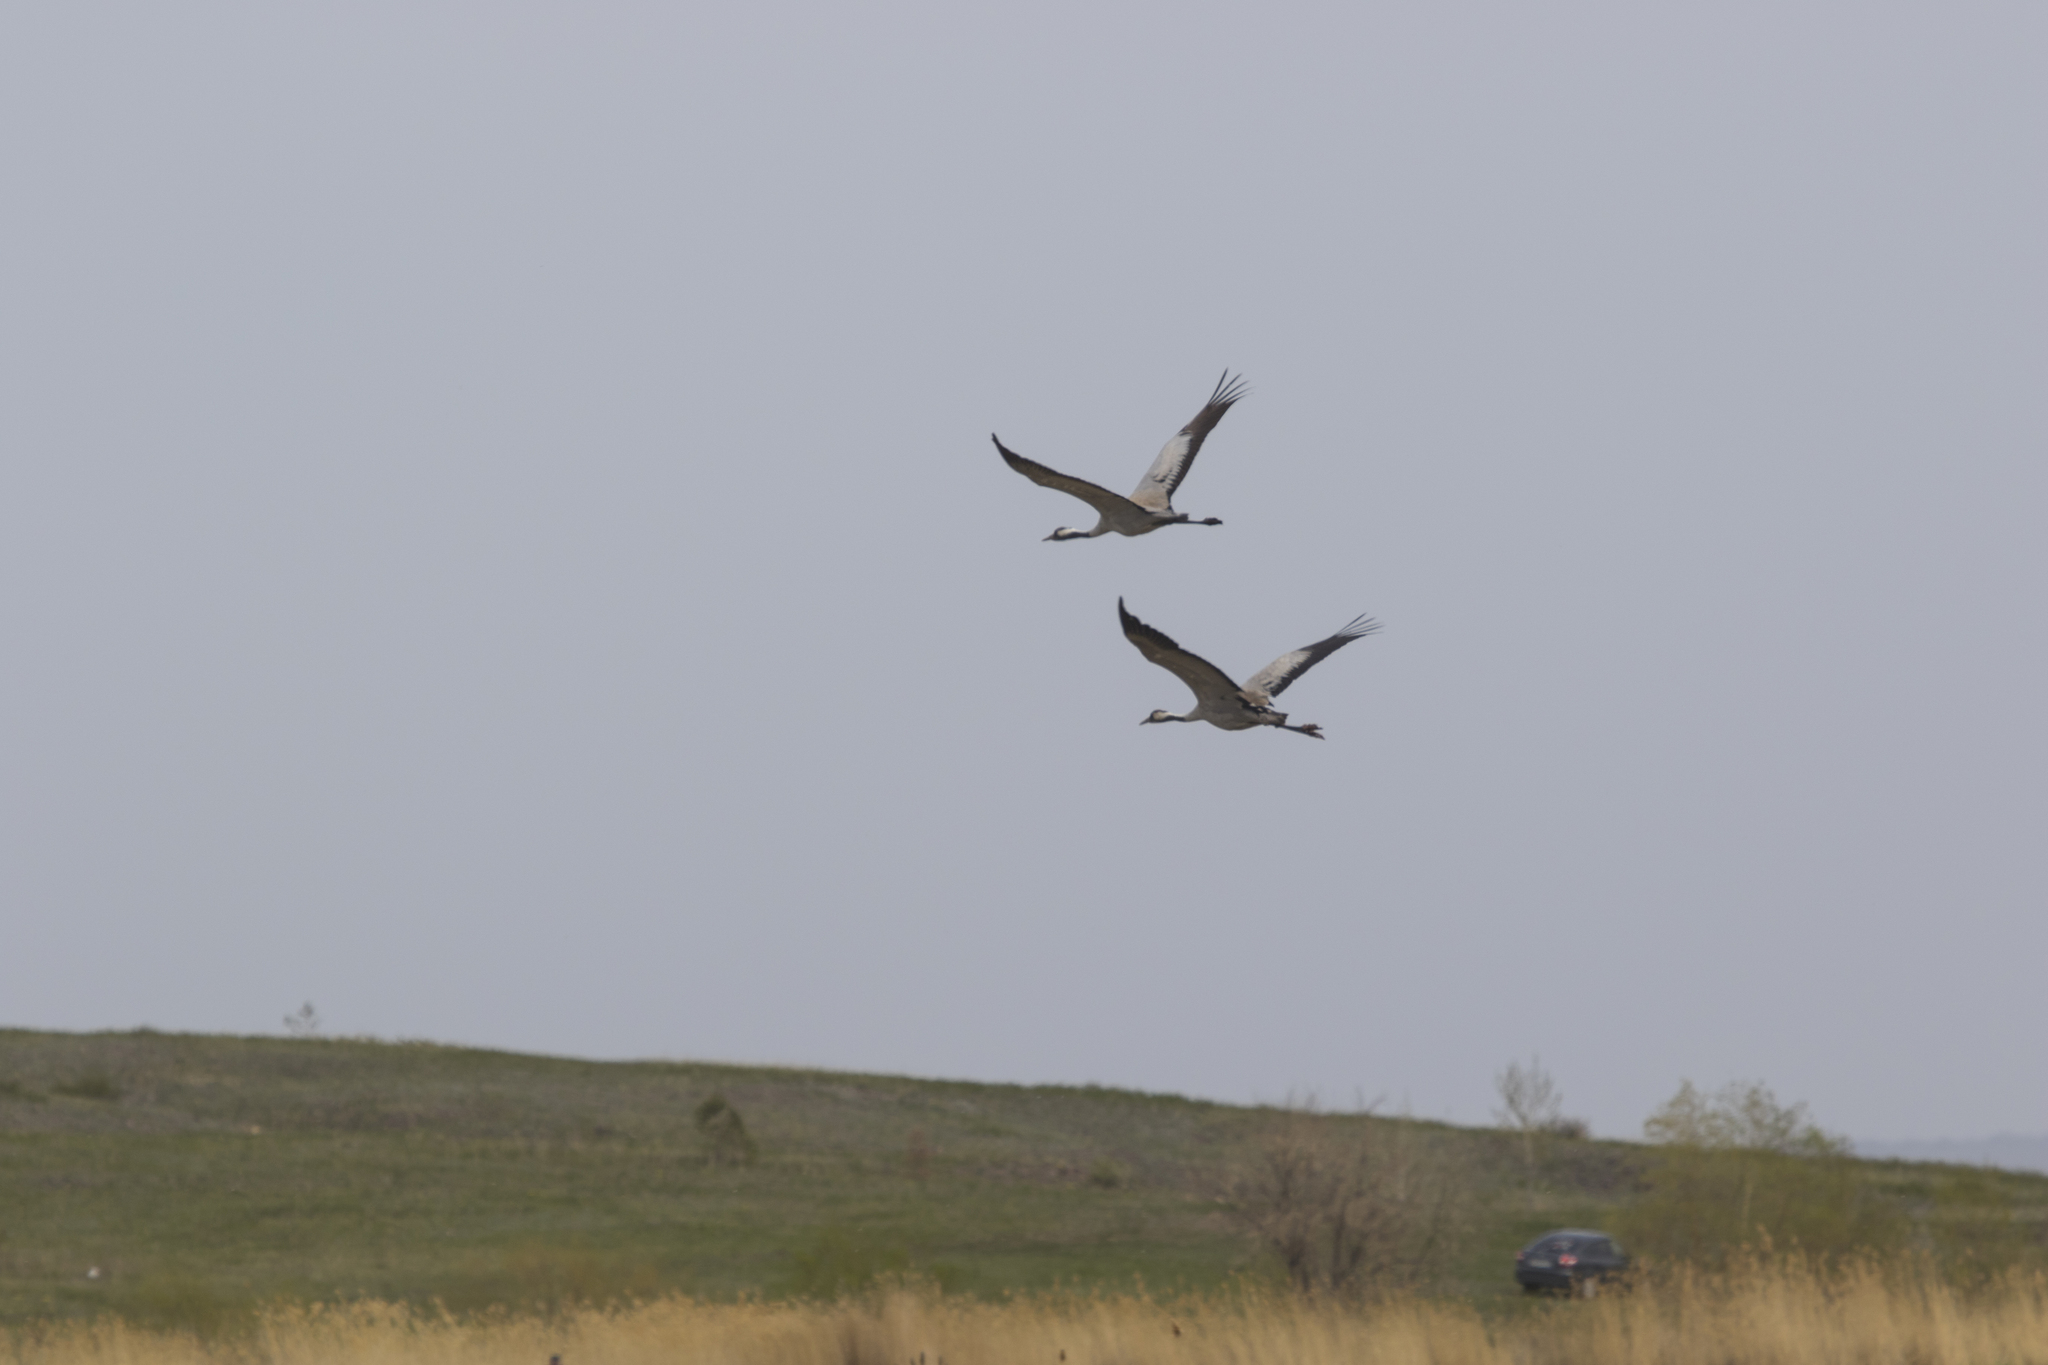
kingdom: Animalia
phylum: Chordata
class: Aves
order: Gruiformes
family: Gruidae
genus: Grus
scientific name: Grus grus
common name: Common crane
